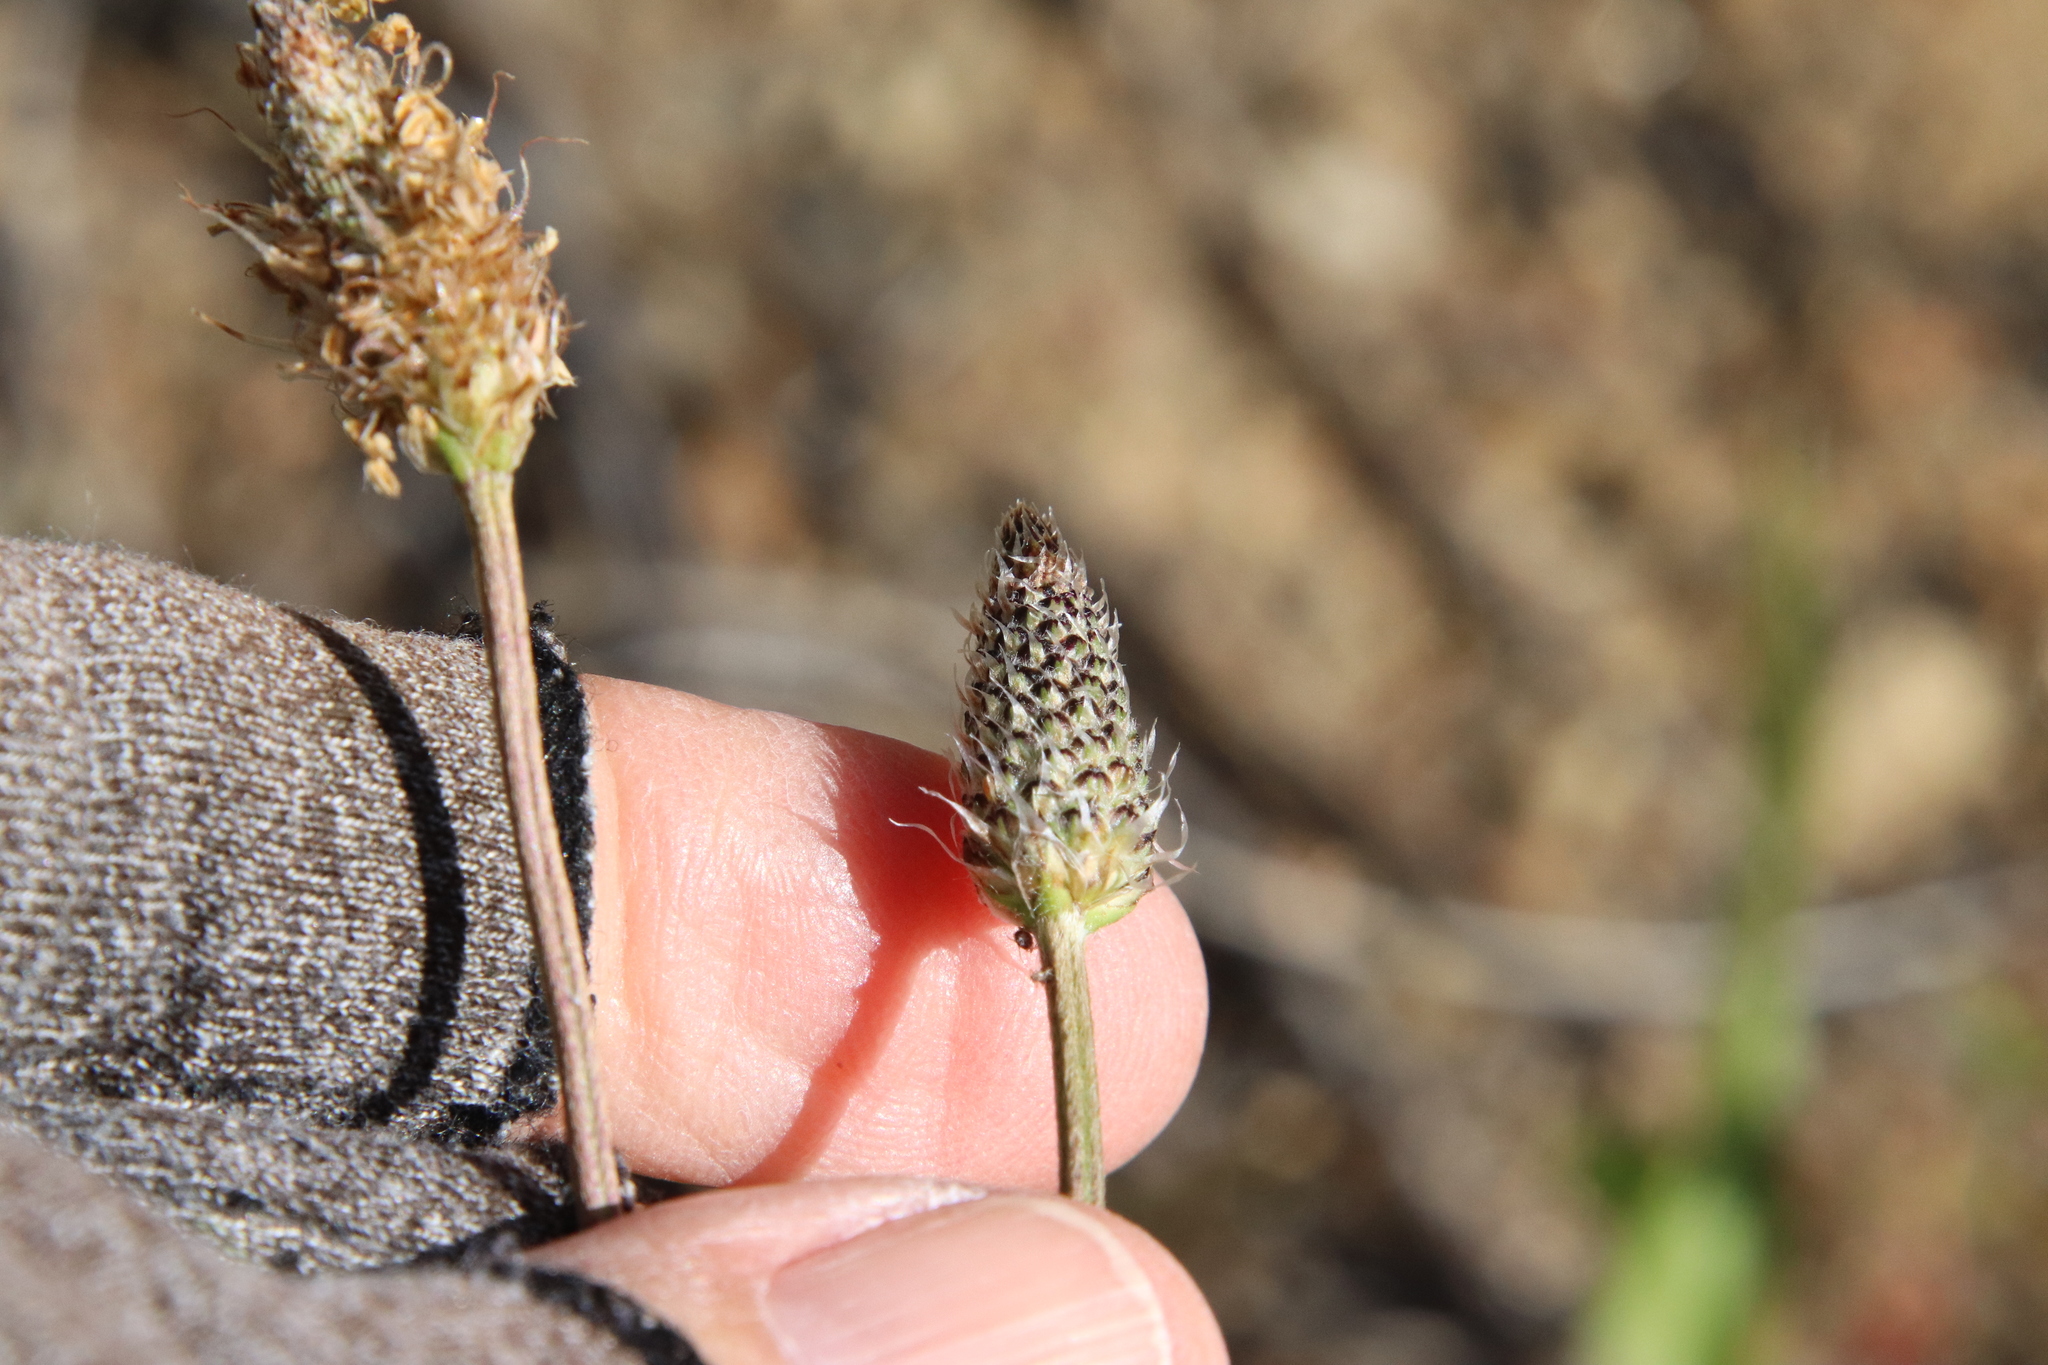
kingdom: Plantae
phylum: Tracheophyta
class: Magnoliopsida
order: Lamiales
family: Plantaginaceae
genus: Plantago
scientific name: Plantago lanceolata
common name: Ribwort plantain
